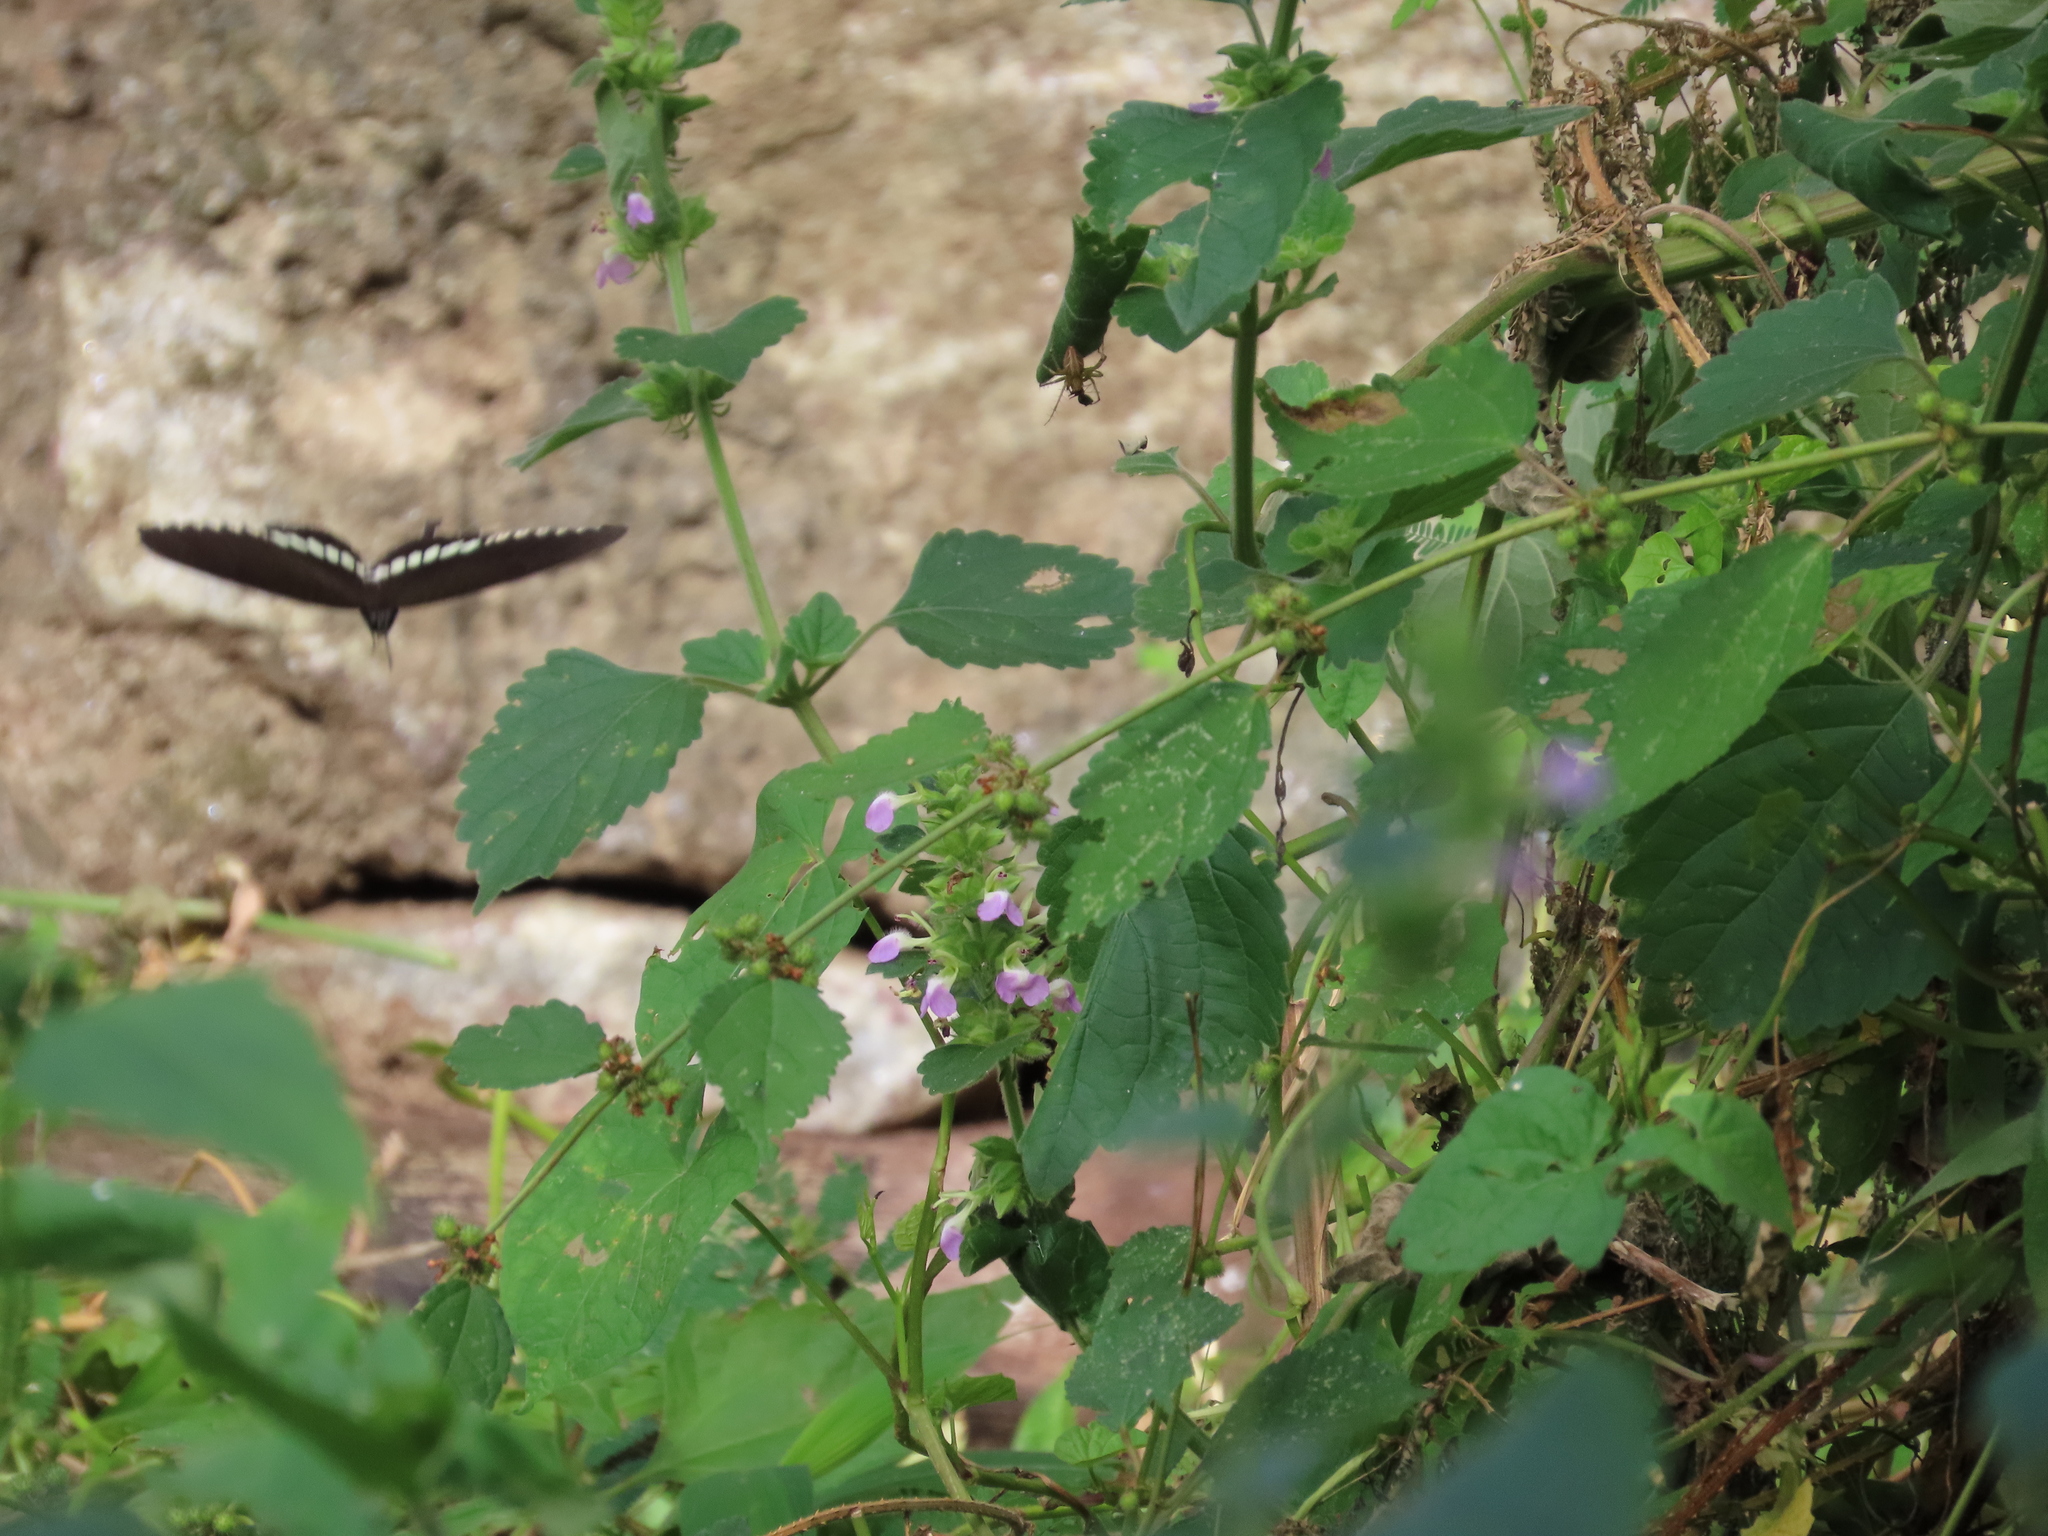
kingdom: Animalia
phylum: Arthropoda
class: Insecta
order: Lepidoptera
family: Papilionidae
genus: Papilio
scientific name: Papilio polytes
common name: Common mormon
